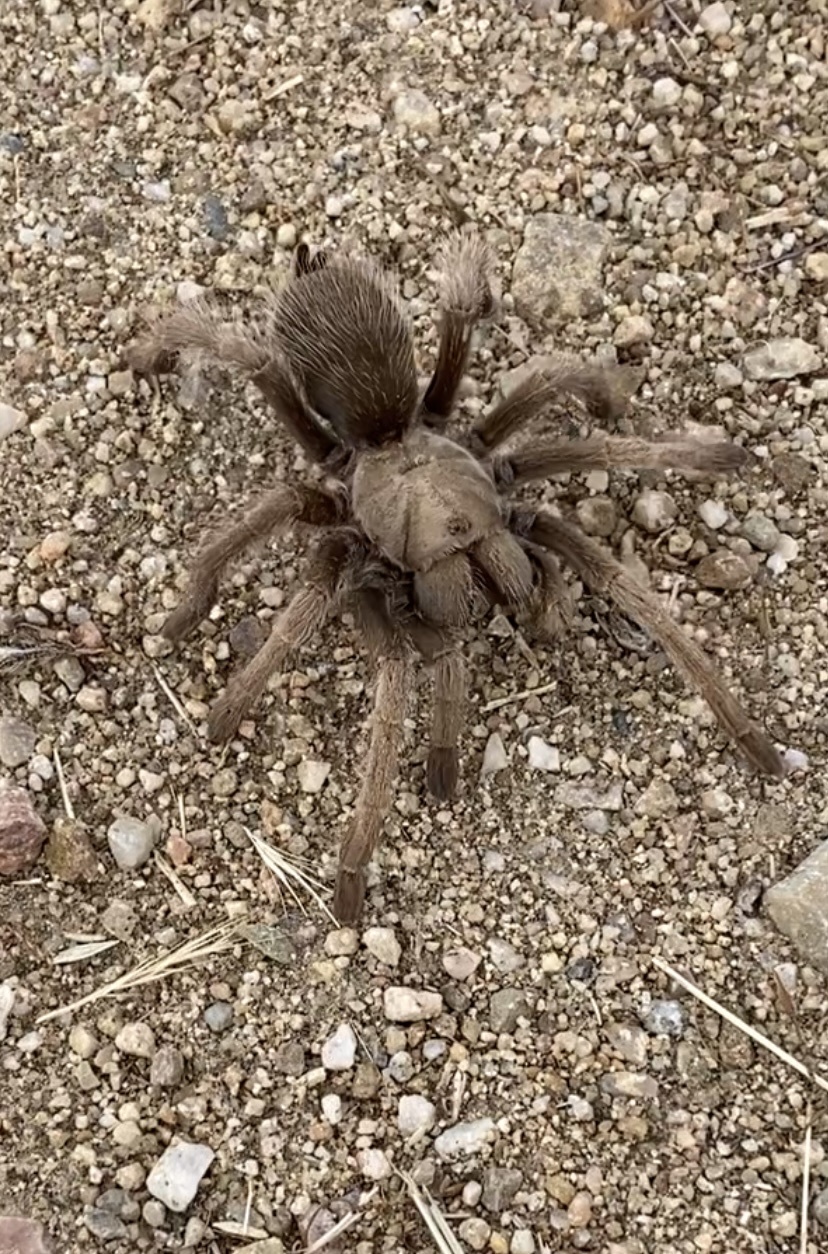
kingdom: Animalia
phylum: Arthropoda
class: Arachnida
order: Araneae
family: Theraphosidae
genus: Aphonopelma
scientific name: Aphonopelma iodius
